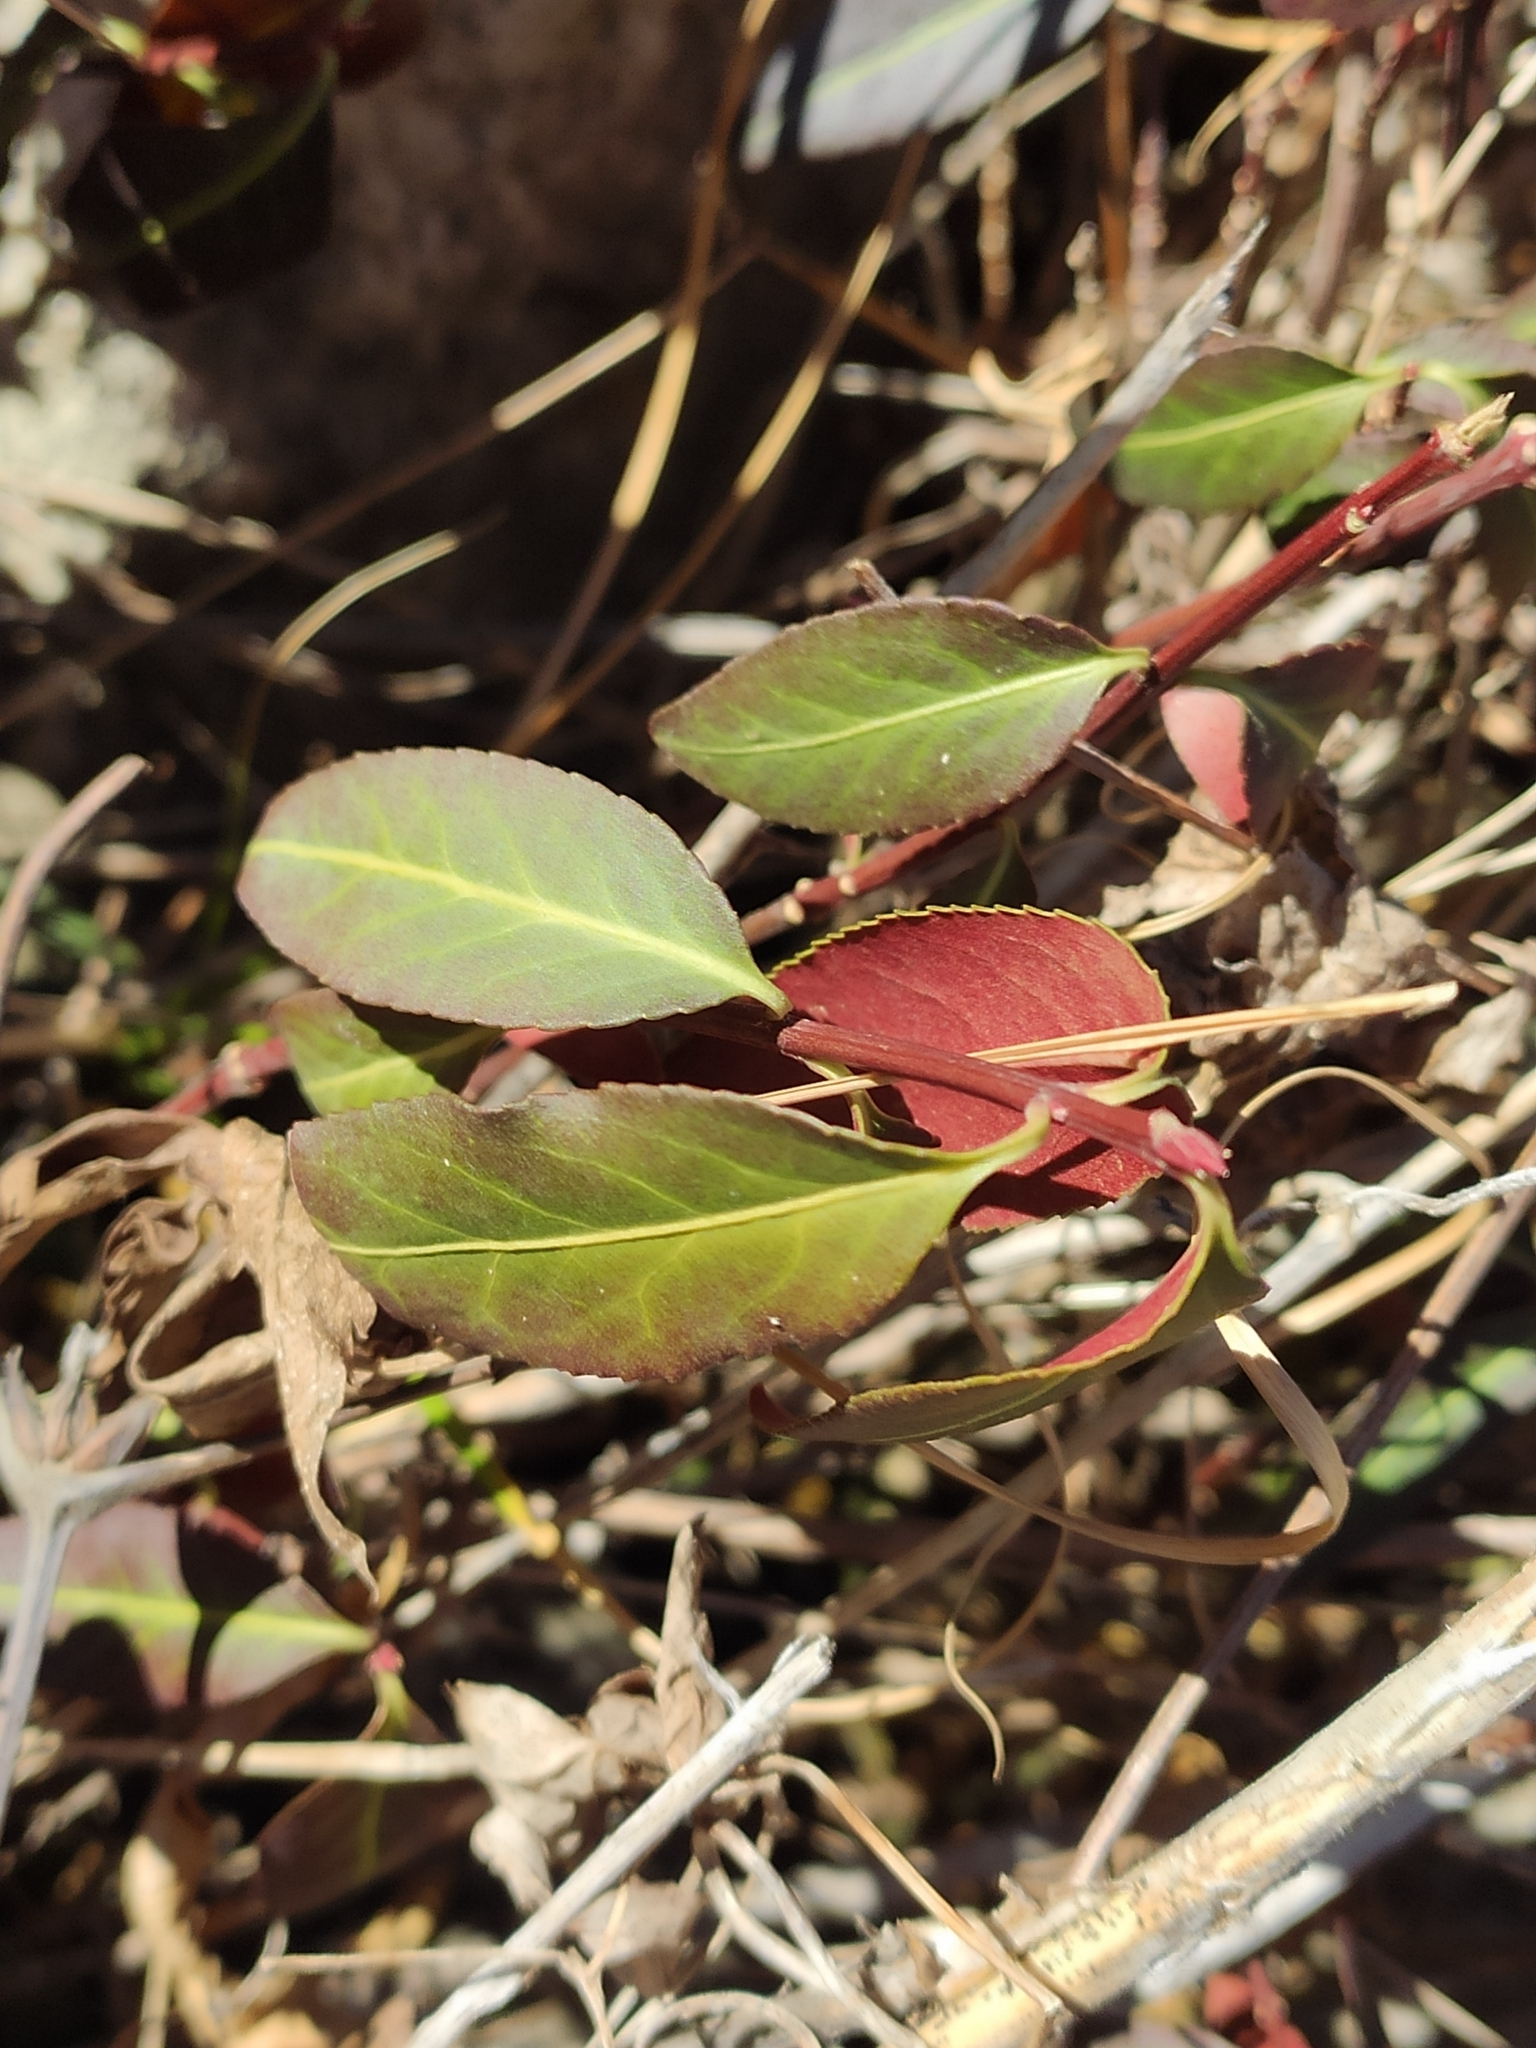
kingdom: Plantae
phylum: Tracheophyta
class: Magnoliopsida
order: Celastrales
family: Celastraceae
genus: Euonymus
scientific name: Euonymus semenovii
